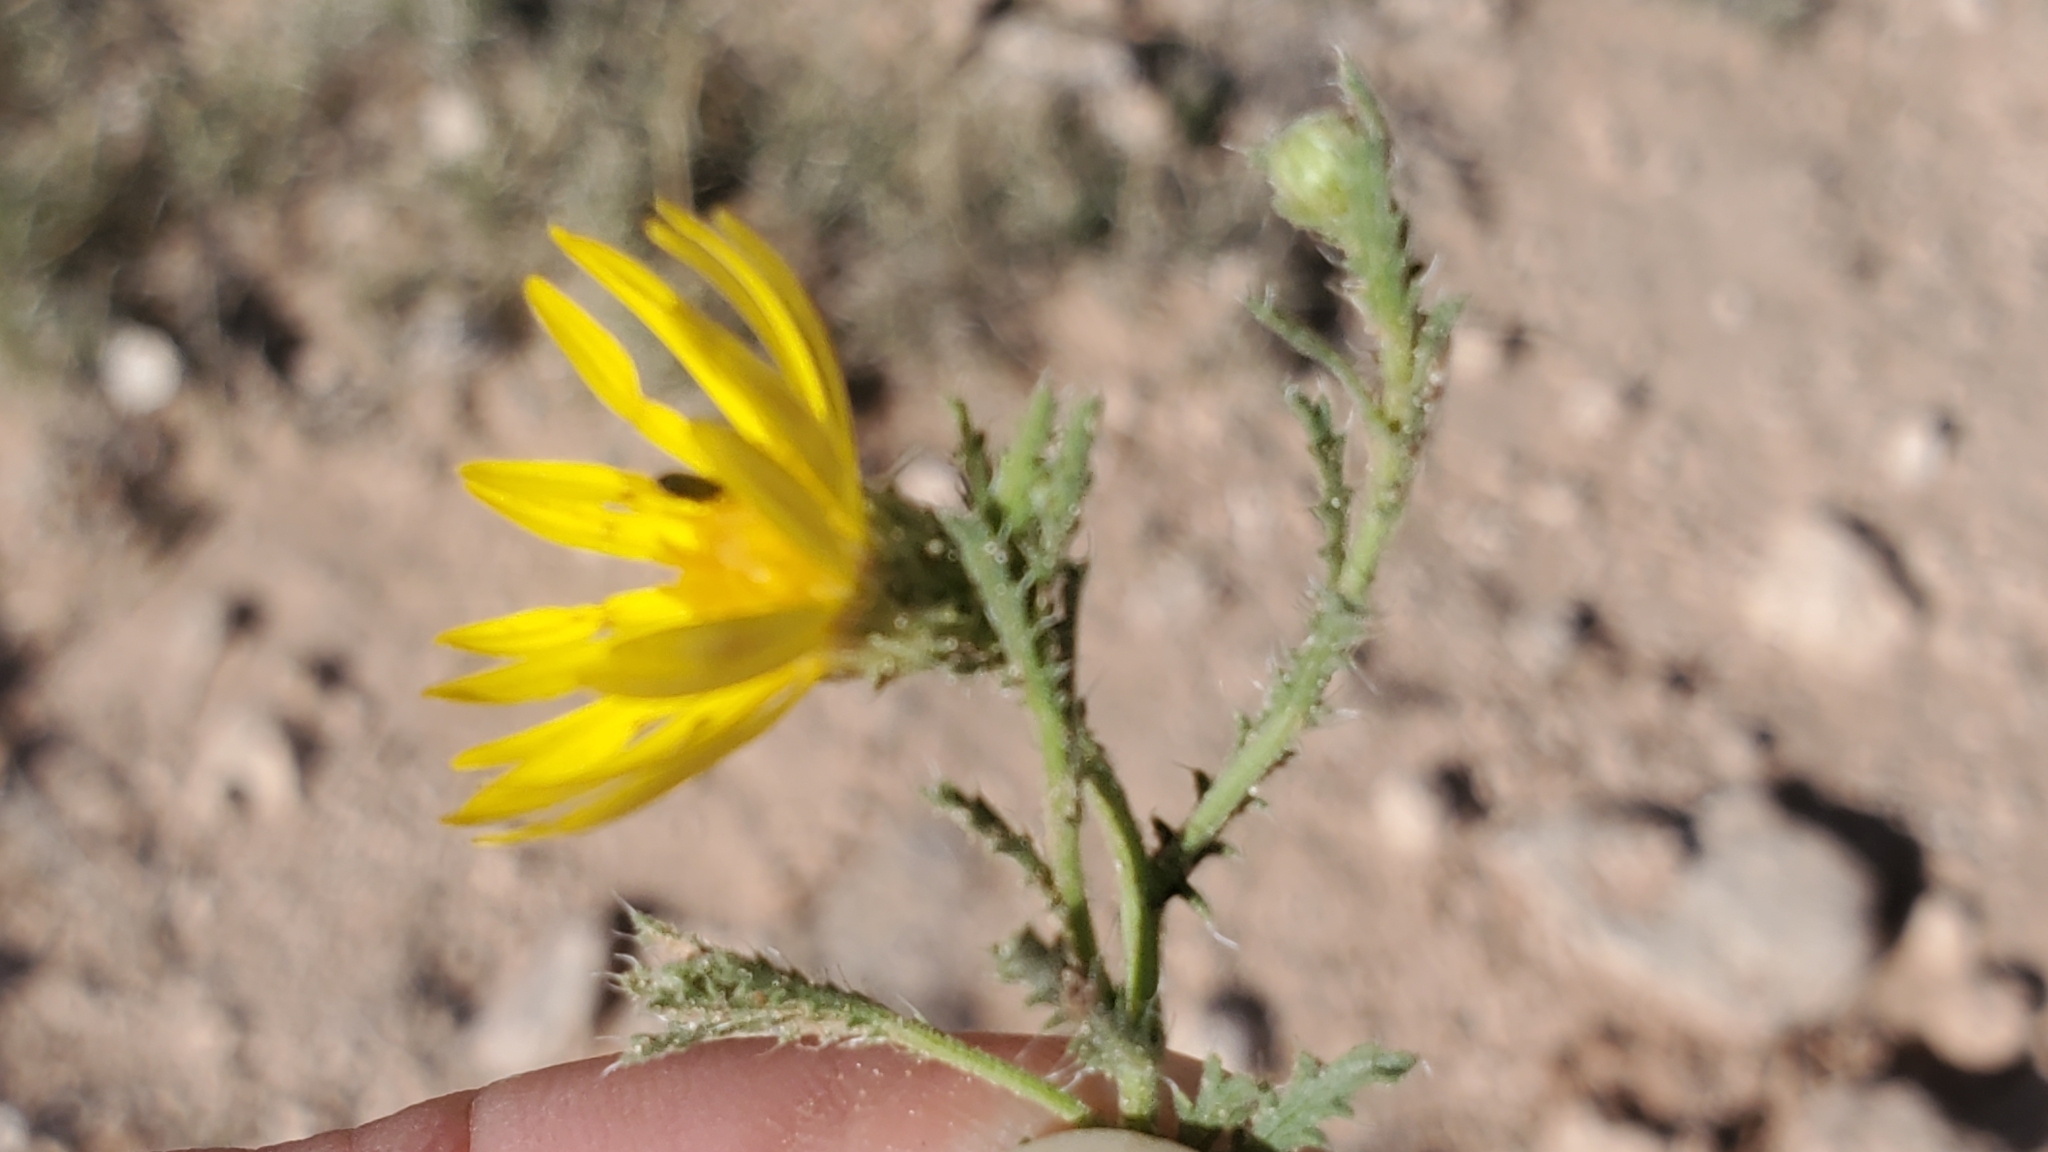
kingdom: Plantae
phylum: Tracheophyta
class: Magnoliopsida
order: Asterales
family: Asteraceae
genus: Xanthisma
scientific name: Xanthisma spinulosum
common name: Spiny goldenweed
